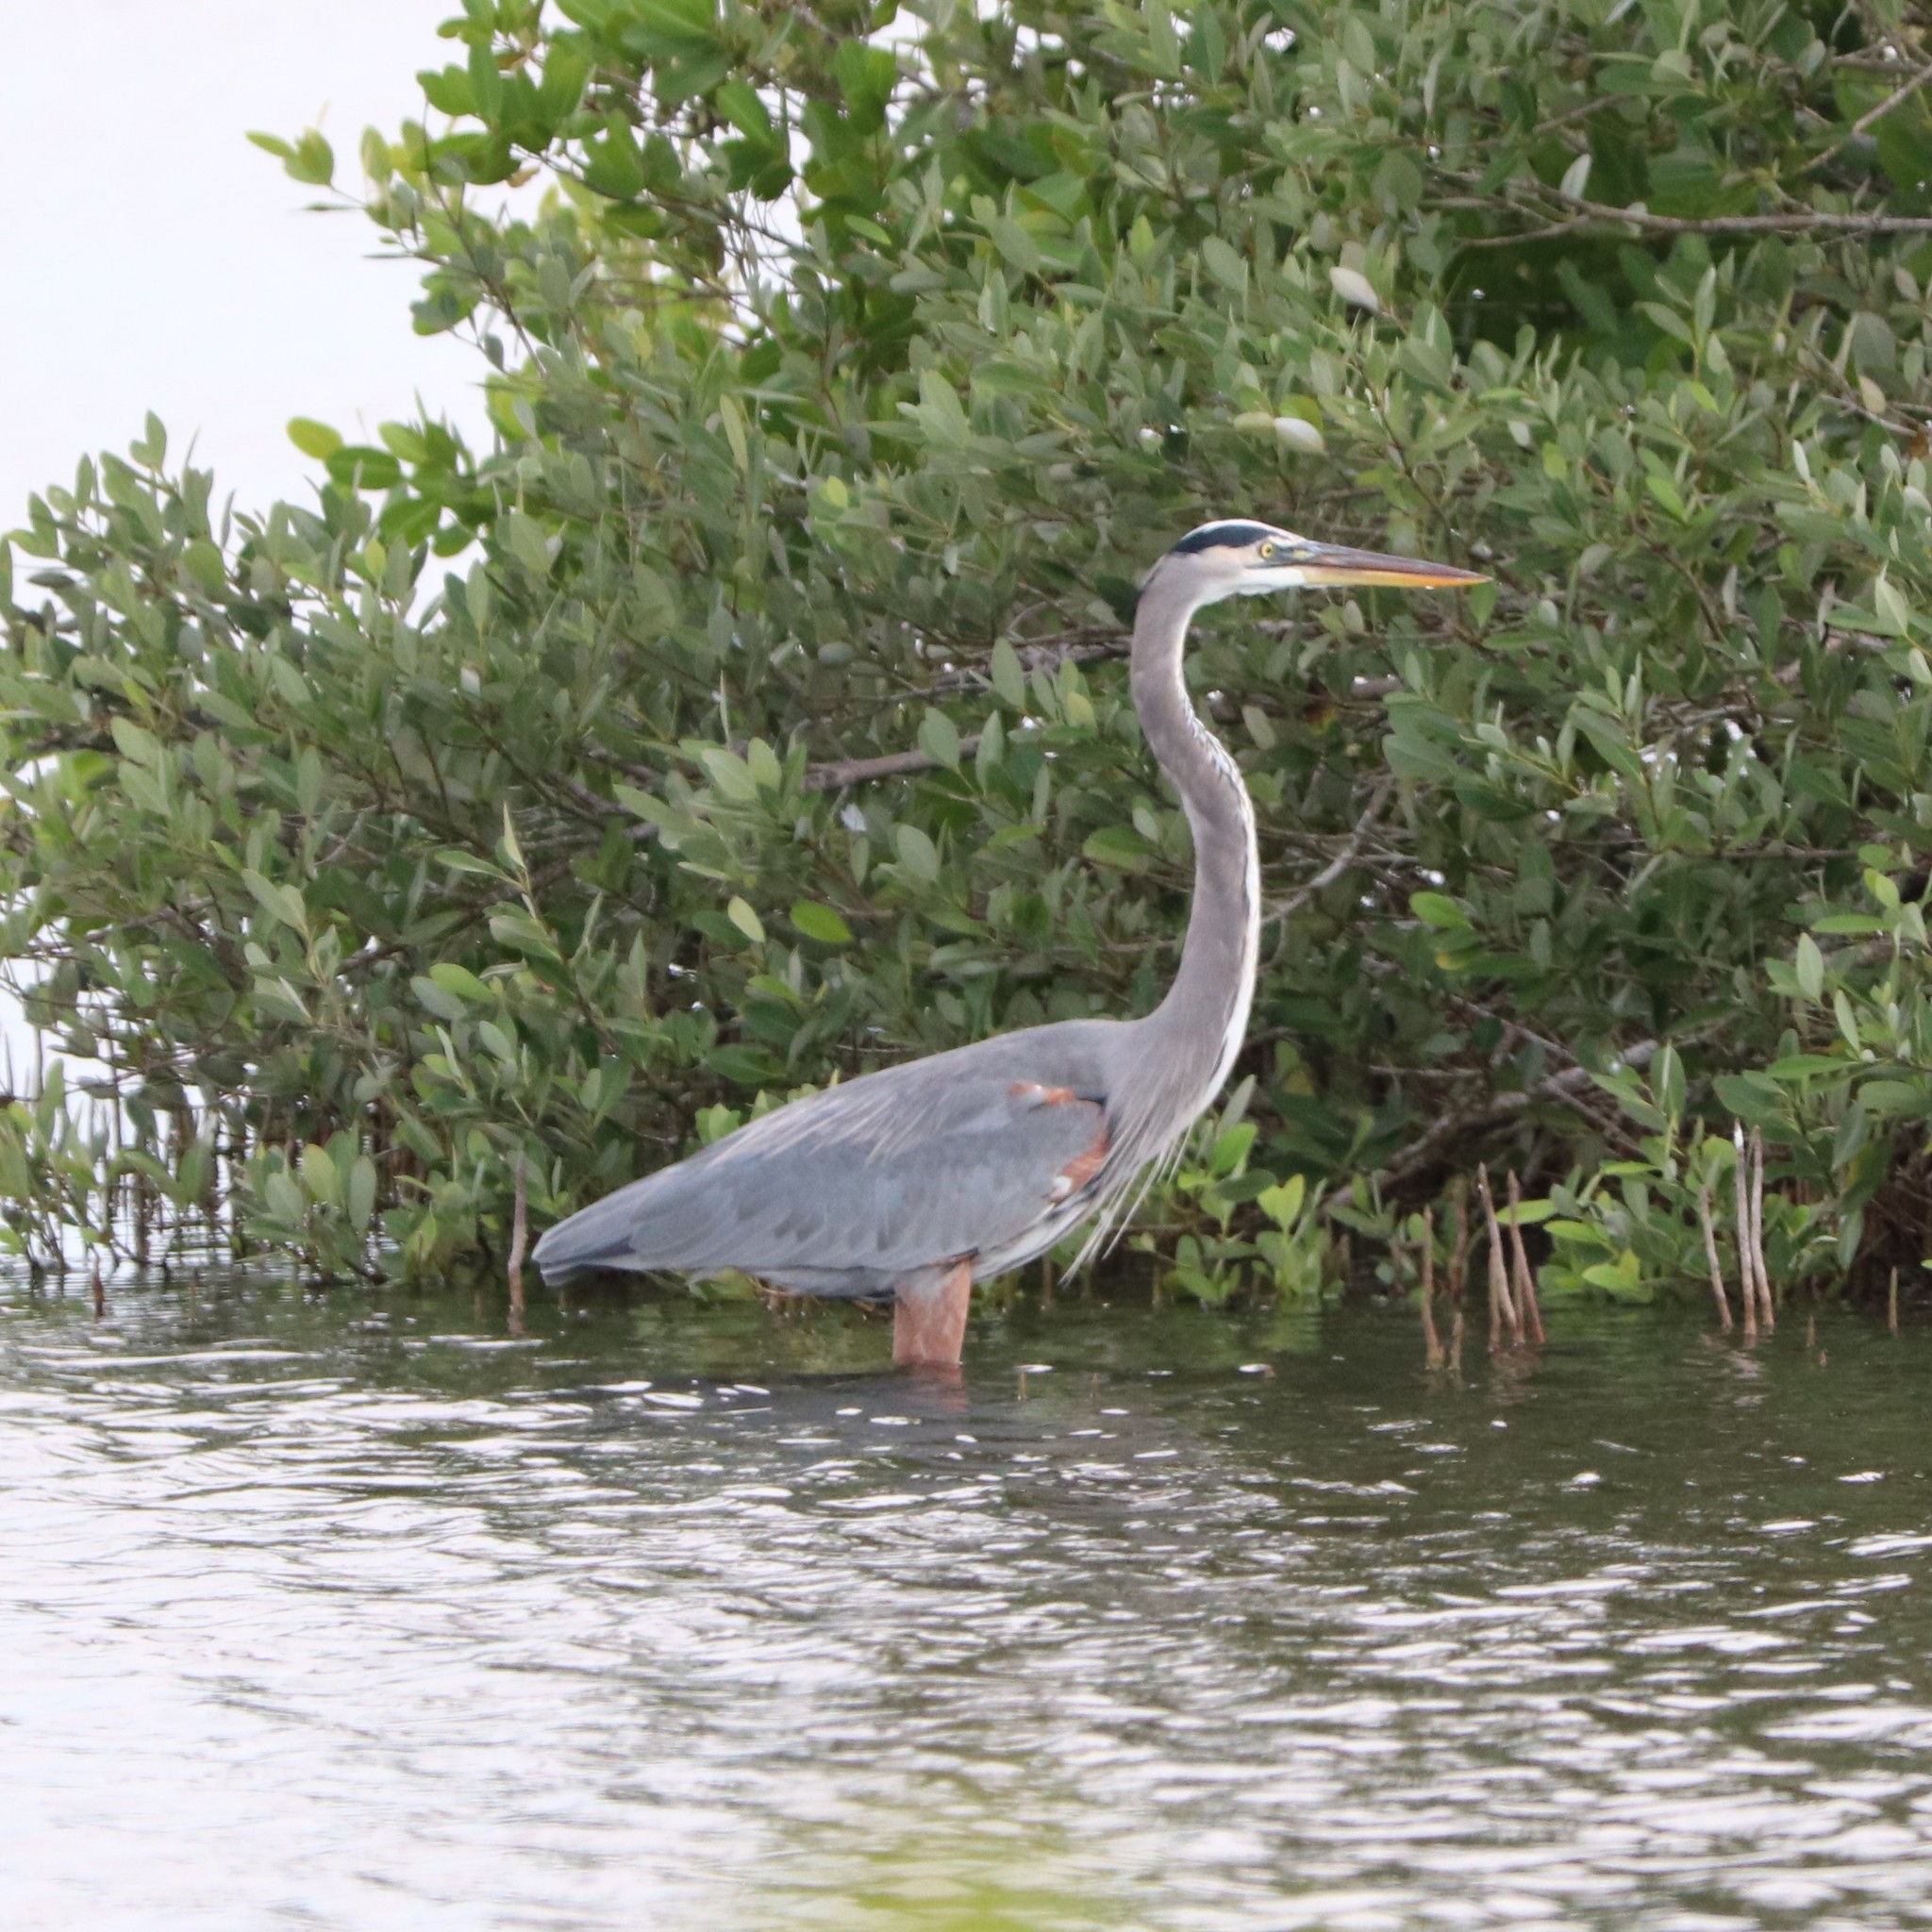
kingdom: Animalia
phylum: Chordata
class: Aves
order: Pelecaniformes
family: Ardeidae
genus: Ardea
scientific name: Ardea herodias
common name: Great blue heron
